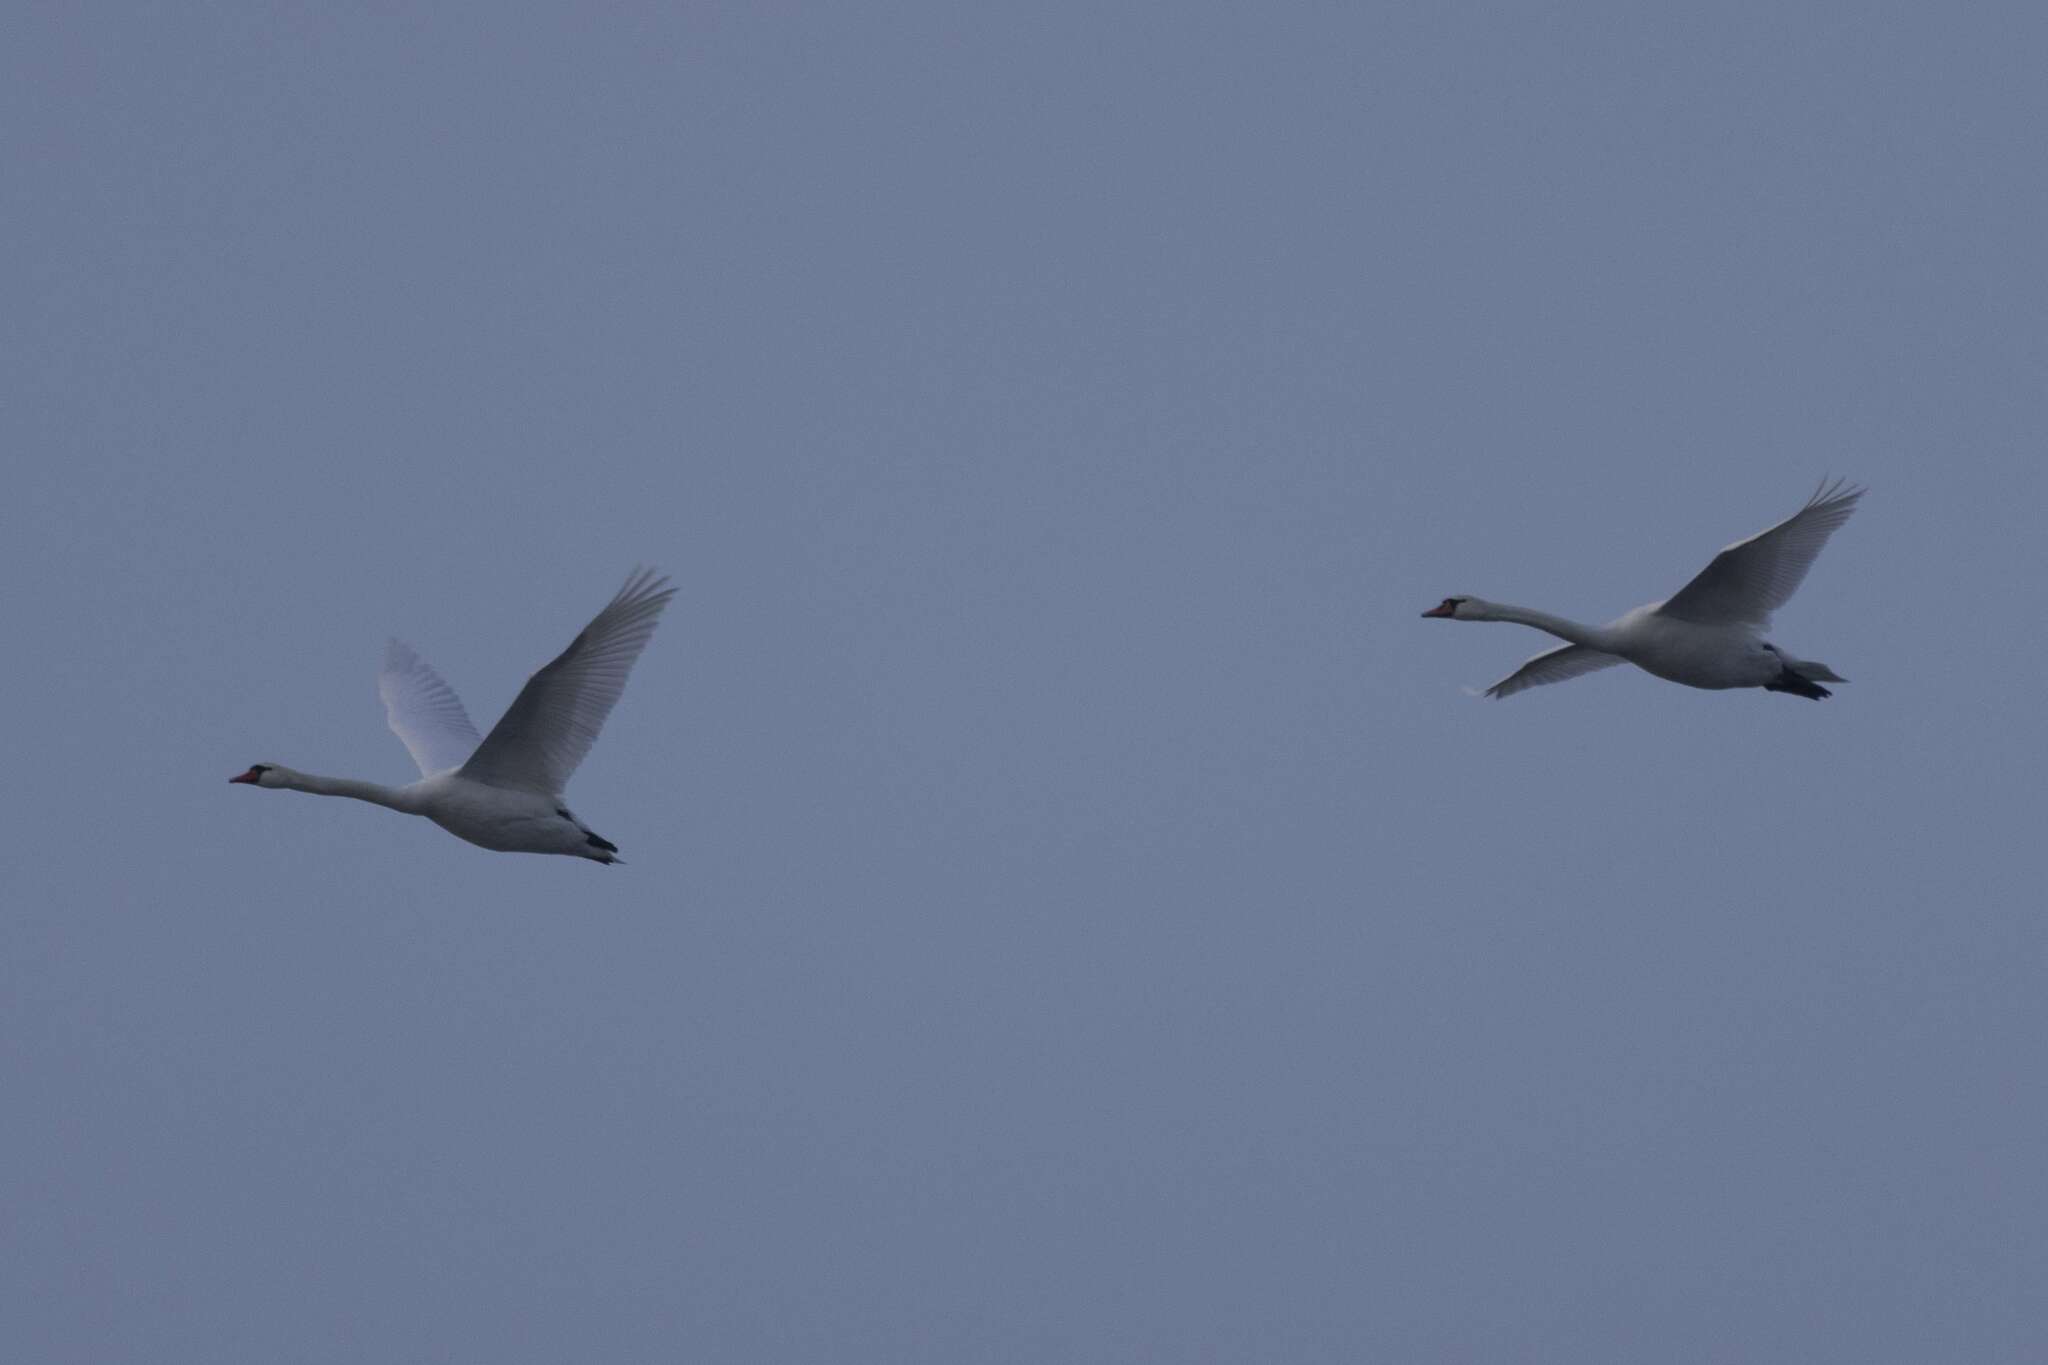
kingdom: Animalia
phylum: Chordata
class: Aves
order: Anseriformes
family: Anatidae
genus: Cygnus
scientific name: Cygnus olor
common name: Mute swan
